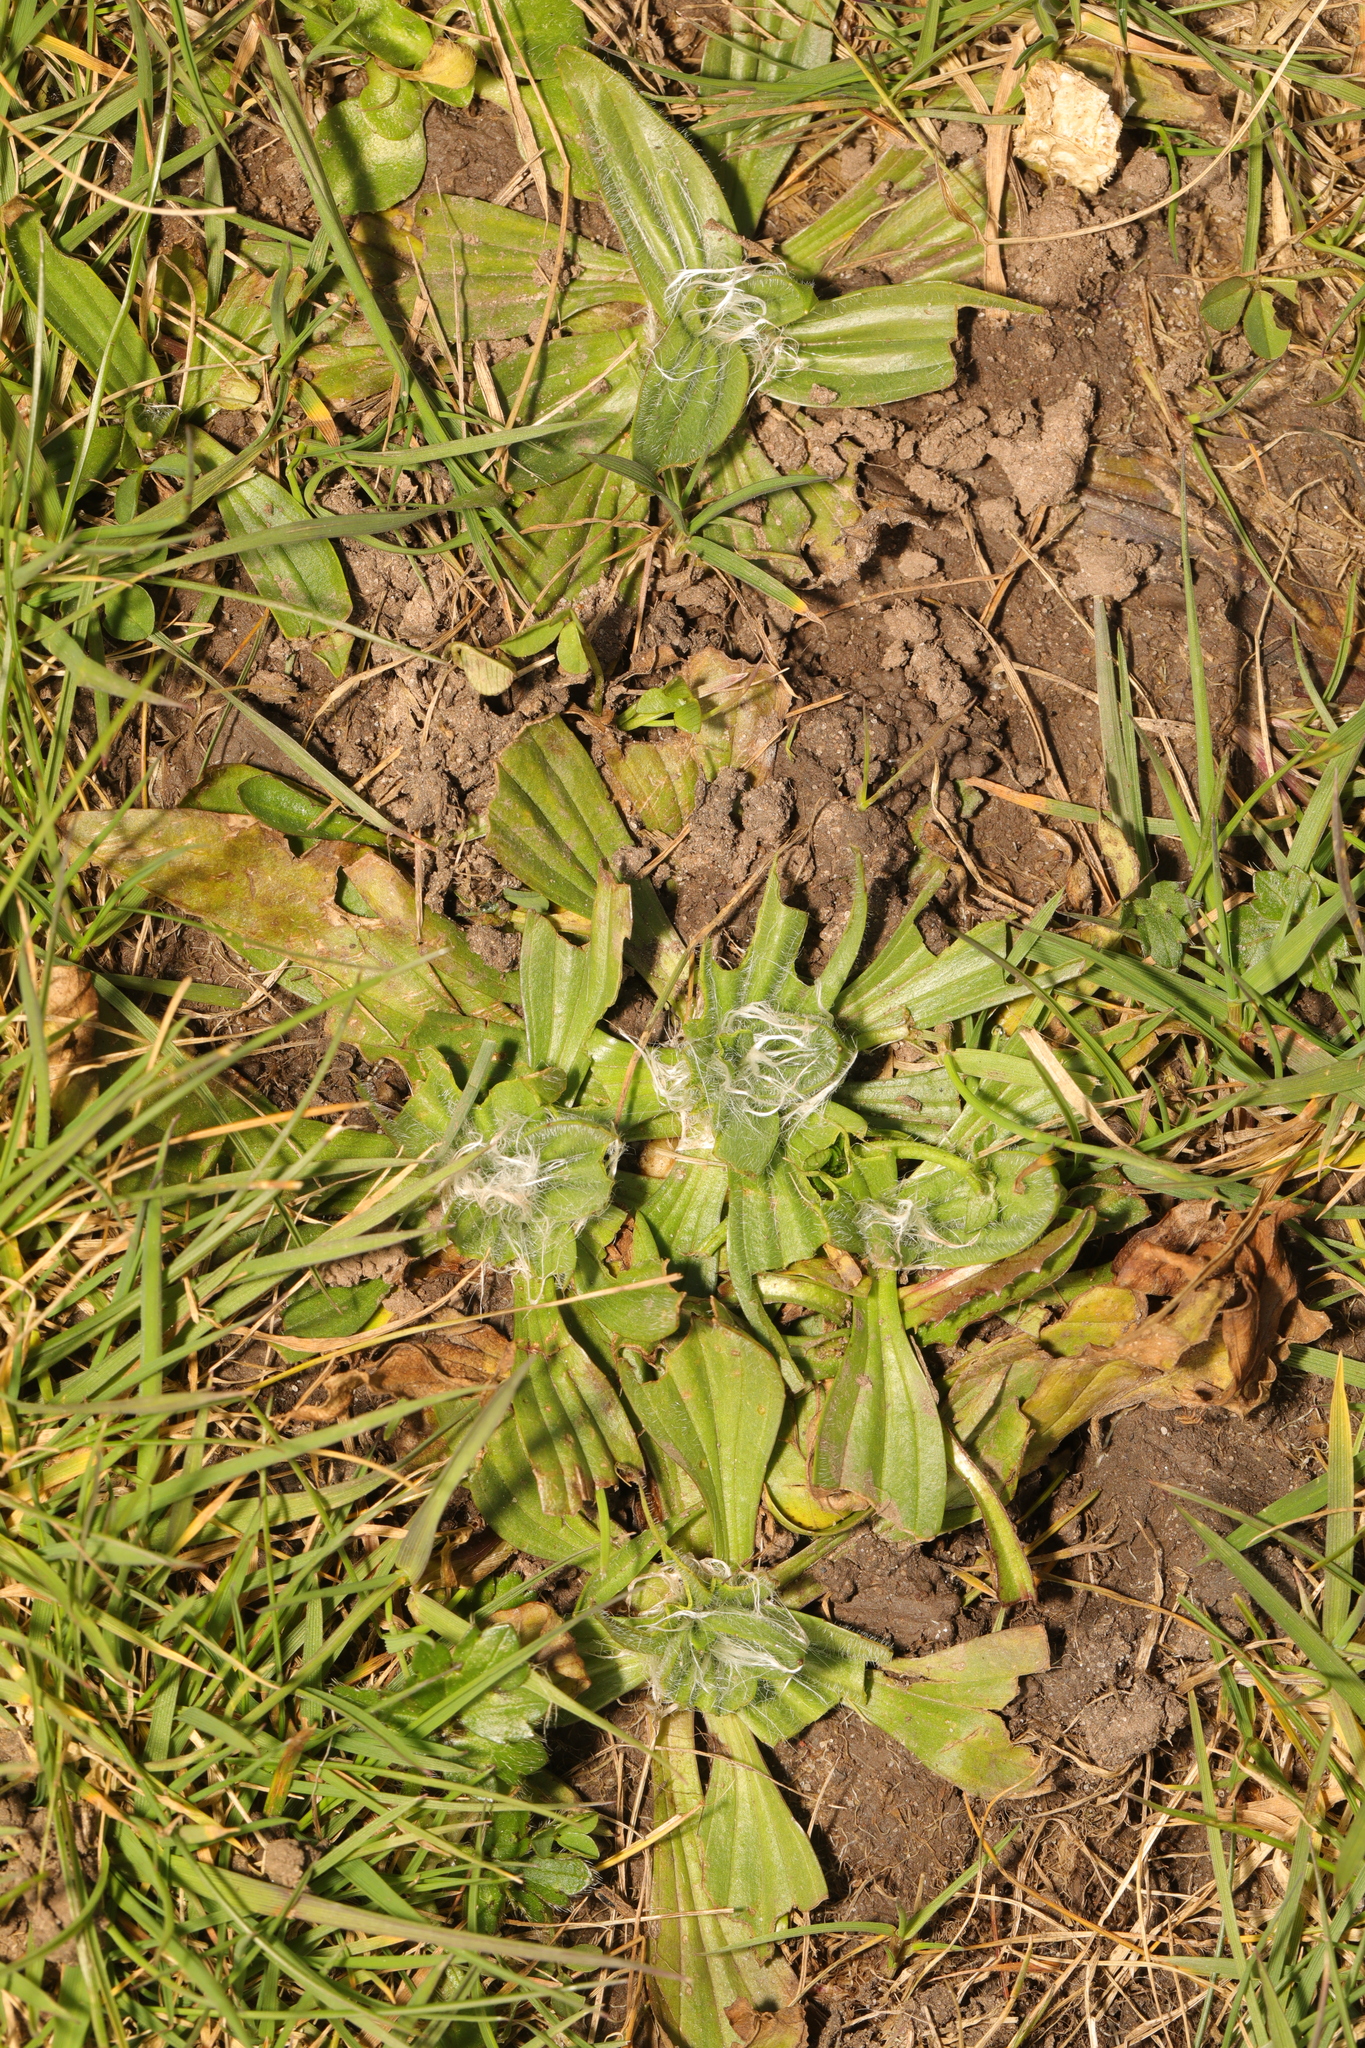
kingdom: Plantae
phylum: Tracheophyta
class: Magnoliopsida
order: Lamiales
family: Plantaginaceae
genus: Plantago
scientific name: Plantago lanceolata
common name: Ribwort plantain
